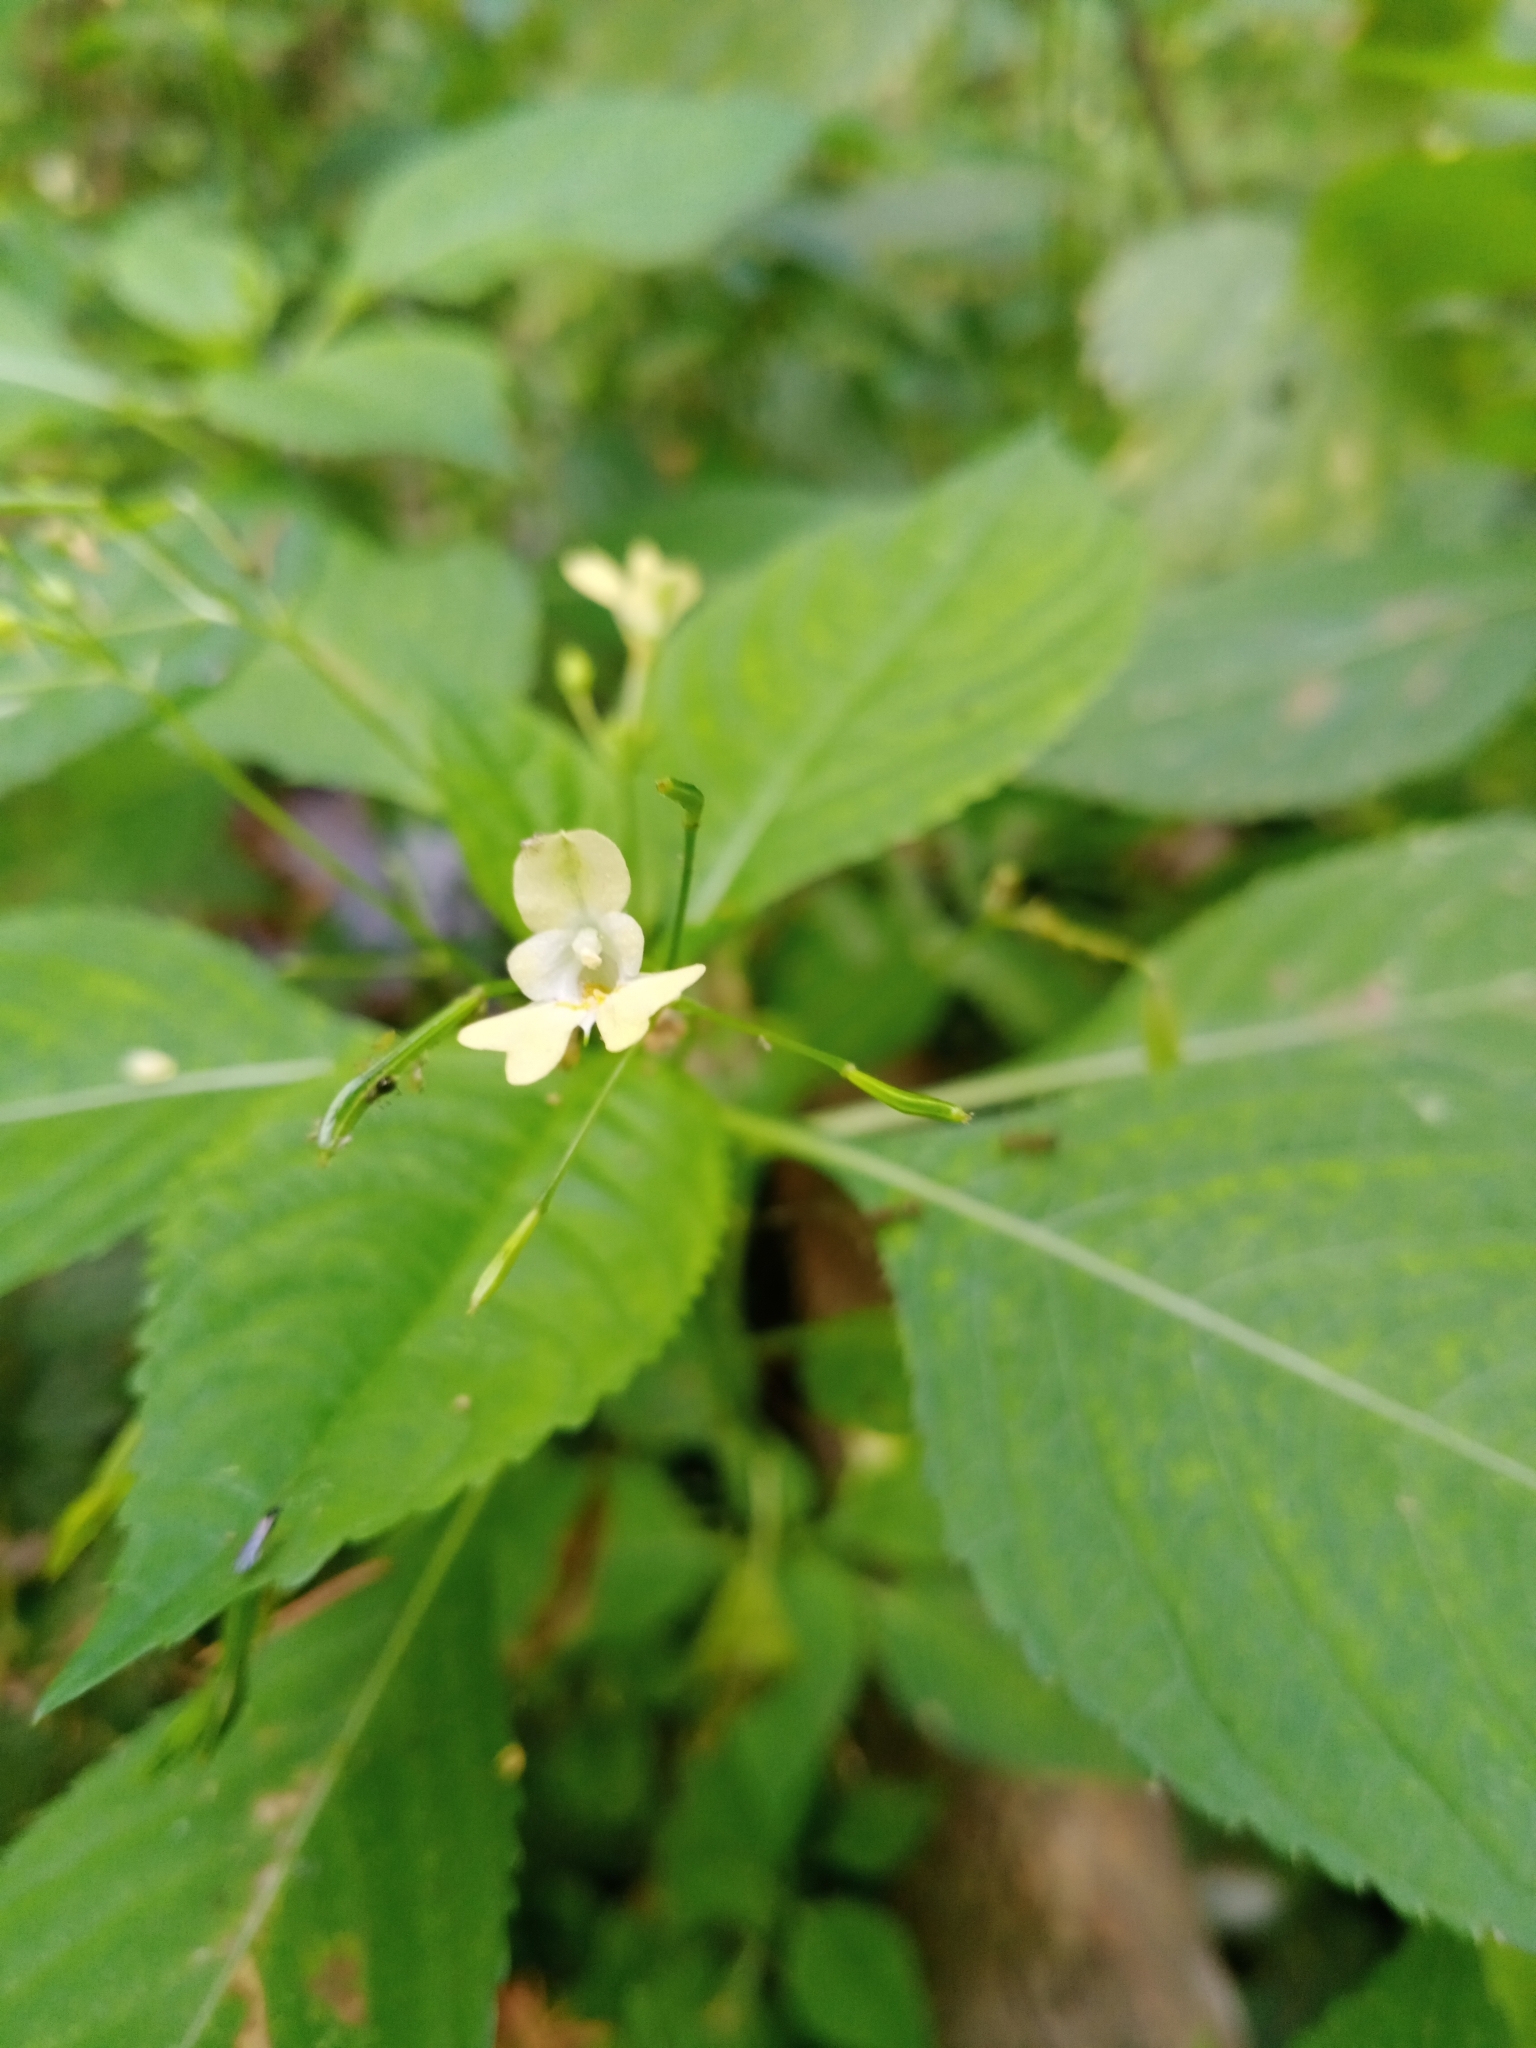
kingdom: Plantae
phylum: Tracheophyta
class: Magnoliopsida
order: Ericales
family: Balsaminaceae
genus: Impatiens
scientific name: Impatiens parviflora
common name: Small balsam
